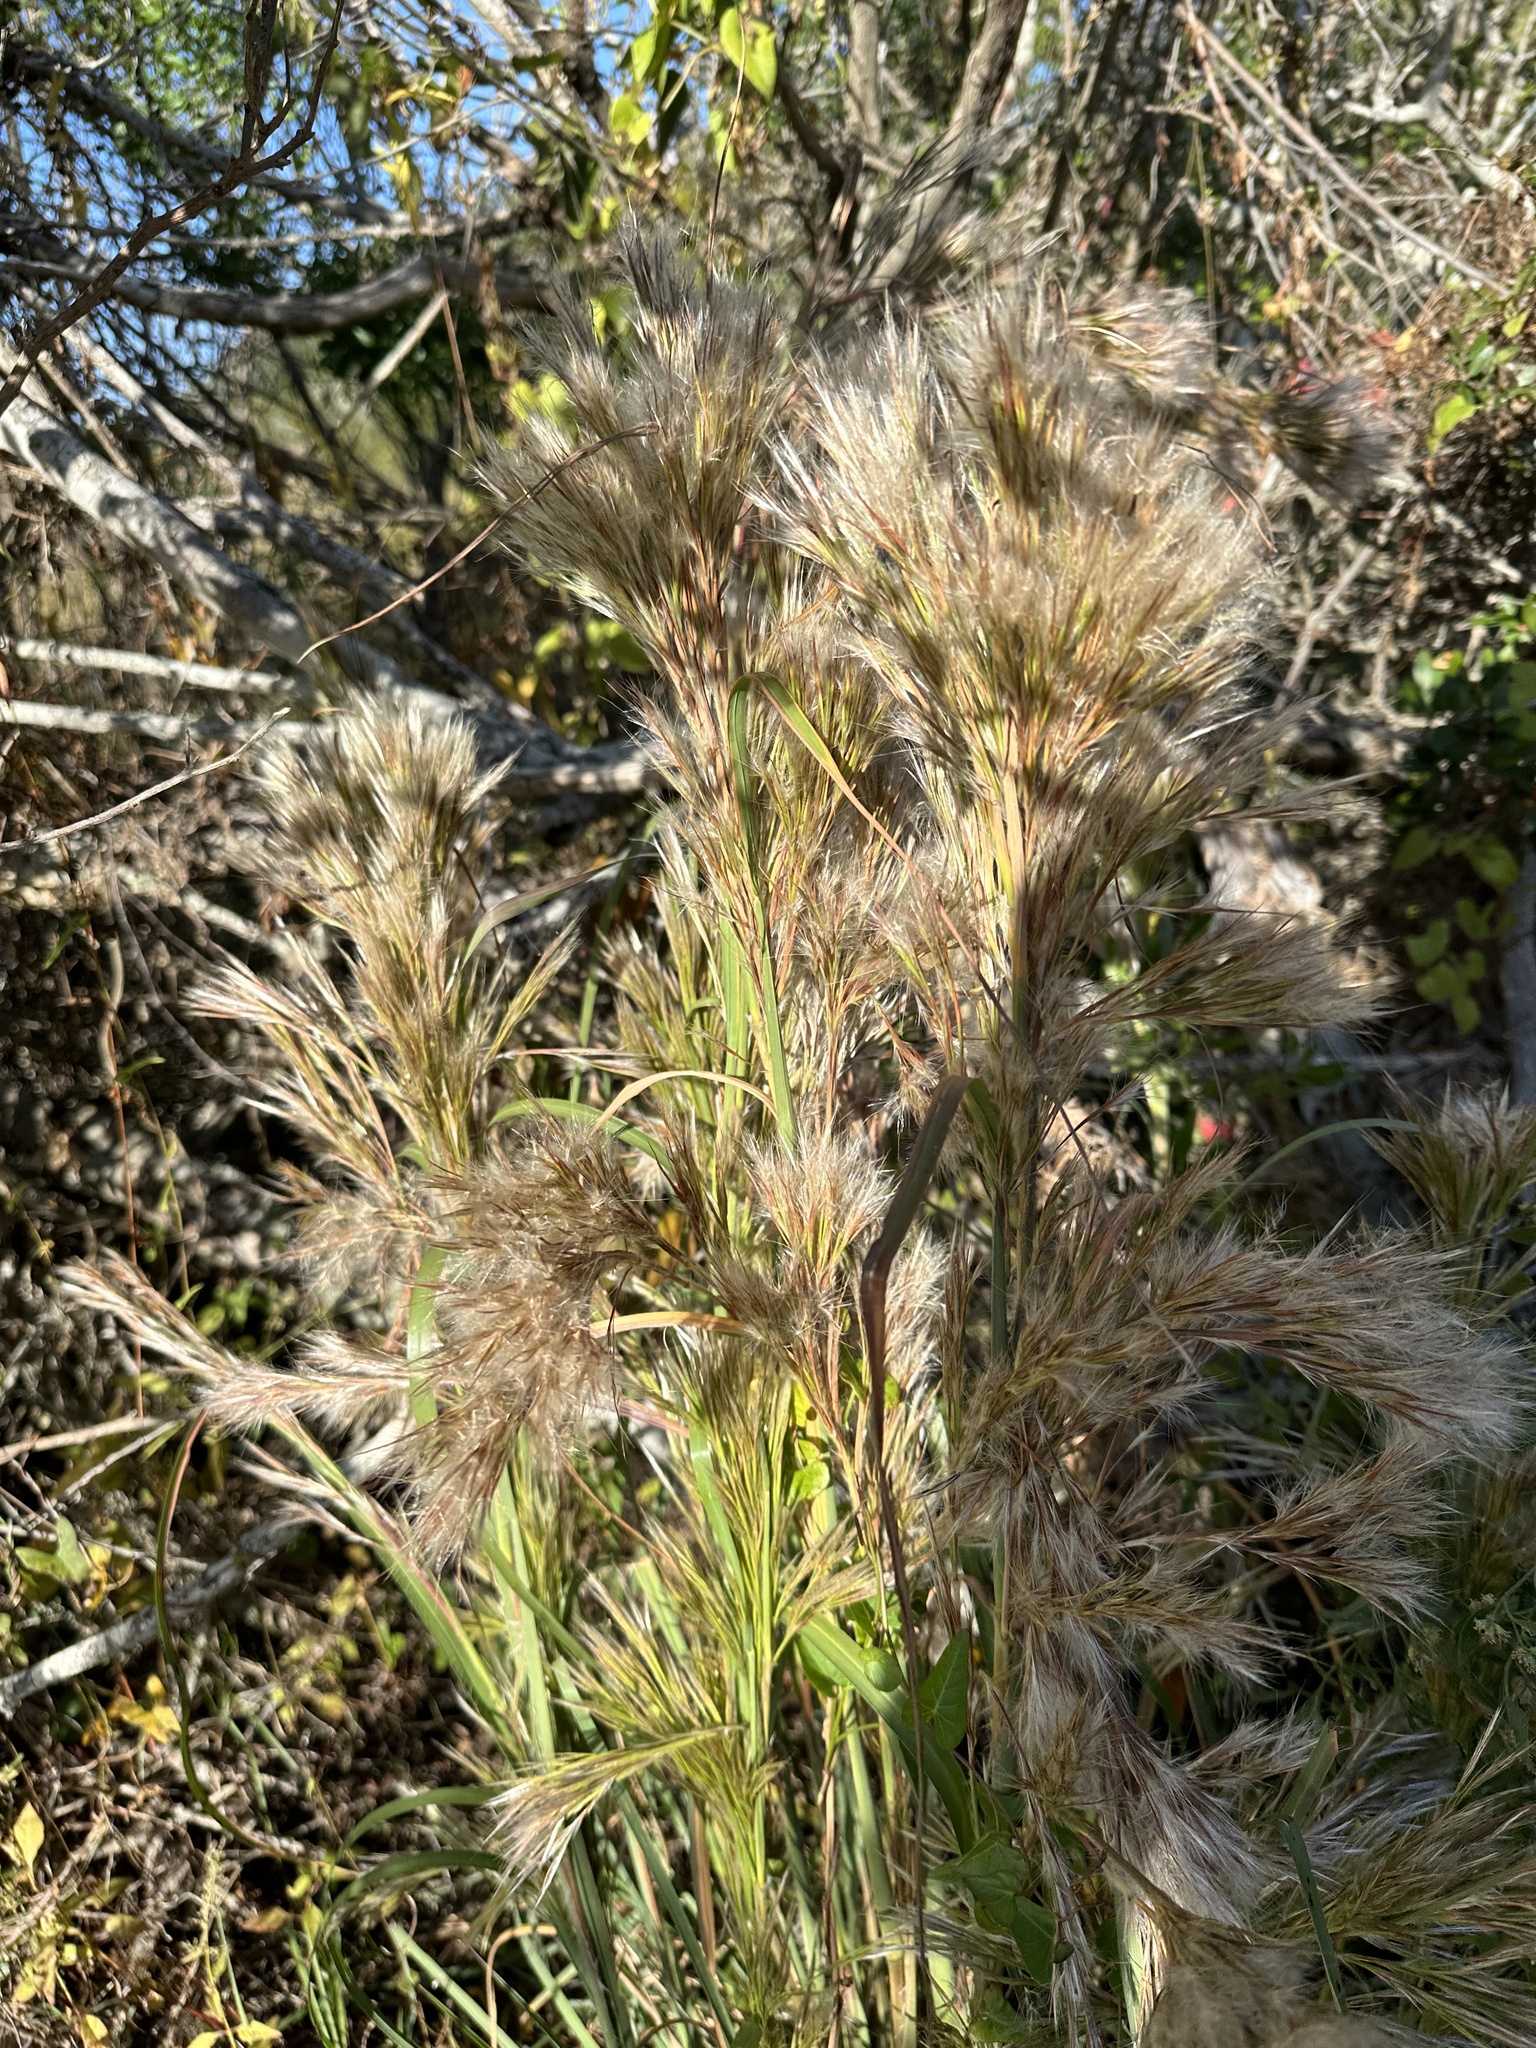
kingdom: Plantae
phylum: Tracheophyta
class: Liliopsida
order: Poales
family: Poaceae
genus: Andropogon
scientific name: Andropogon tenuispatheus
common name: Bushy bluestem
